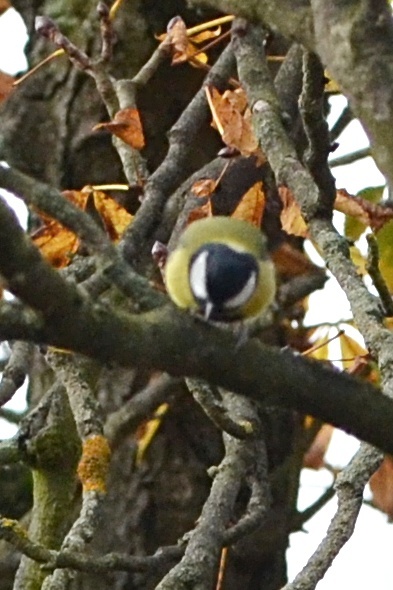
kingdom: Animalia
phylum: Chordata
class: Aves
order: Passeriformes
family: Paridae
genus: Parus
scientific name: Parus major
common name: Great tit
